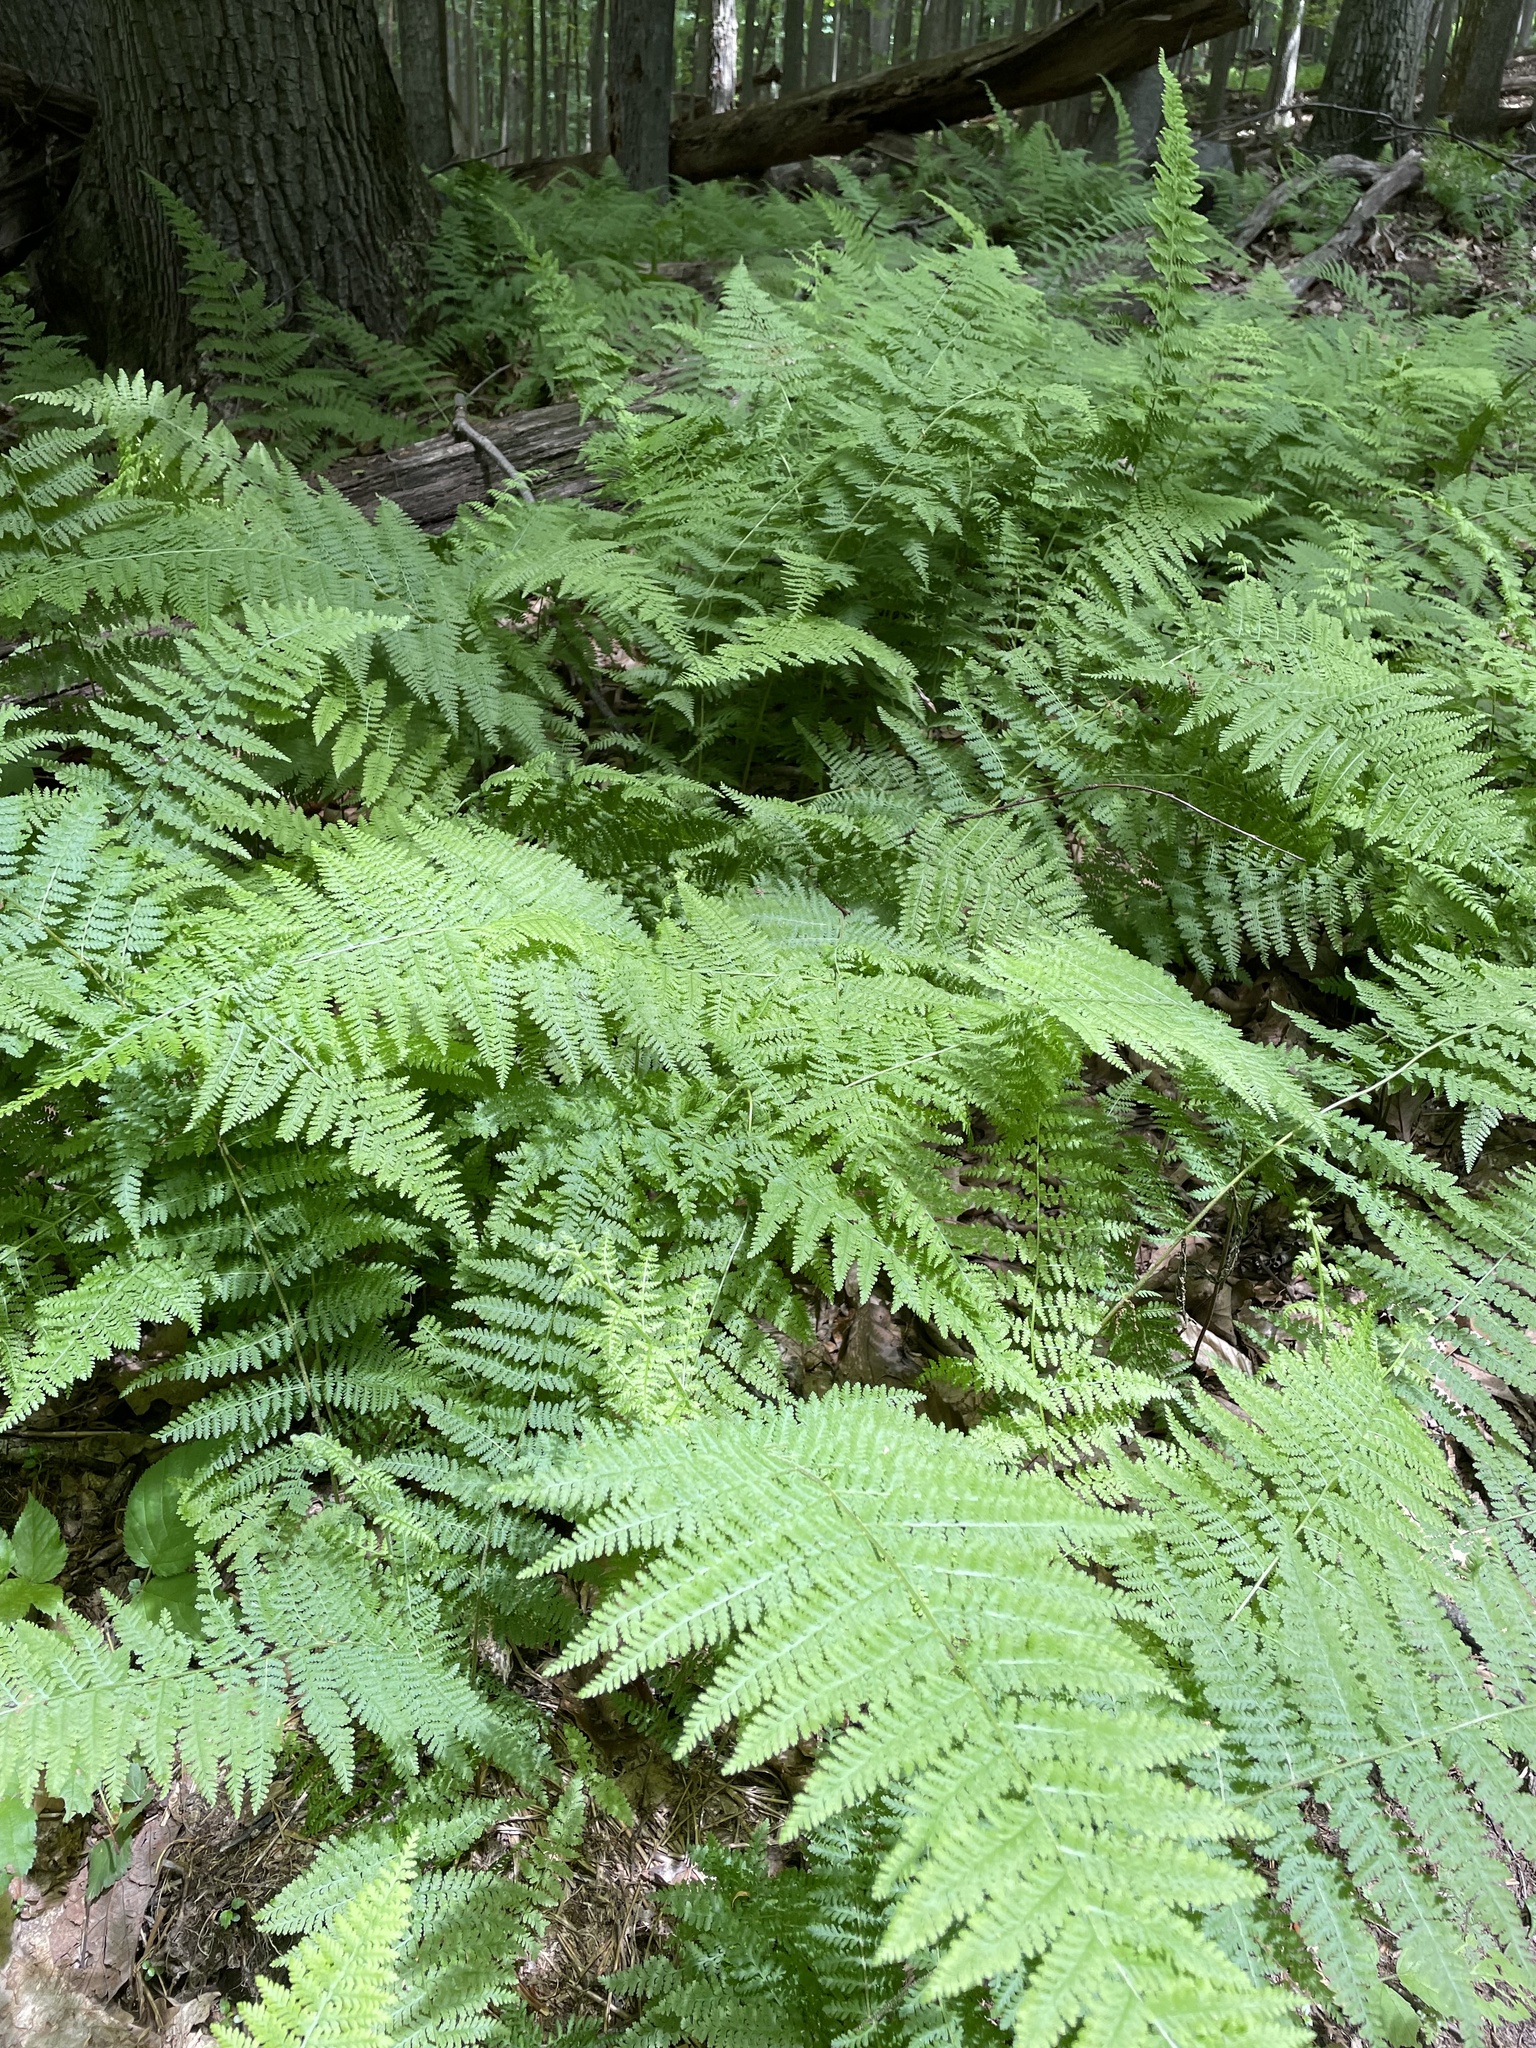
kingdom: Plantae
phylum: Tracheophyta
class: Polypodiopsida
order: Polypodiales
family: Dennstaedtiaceae
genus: Sitobolium
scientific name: Sitobolium punctilobum
